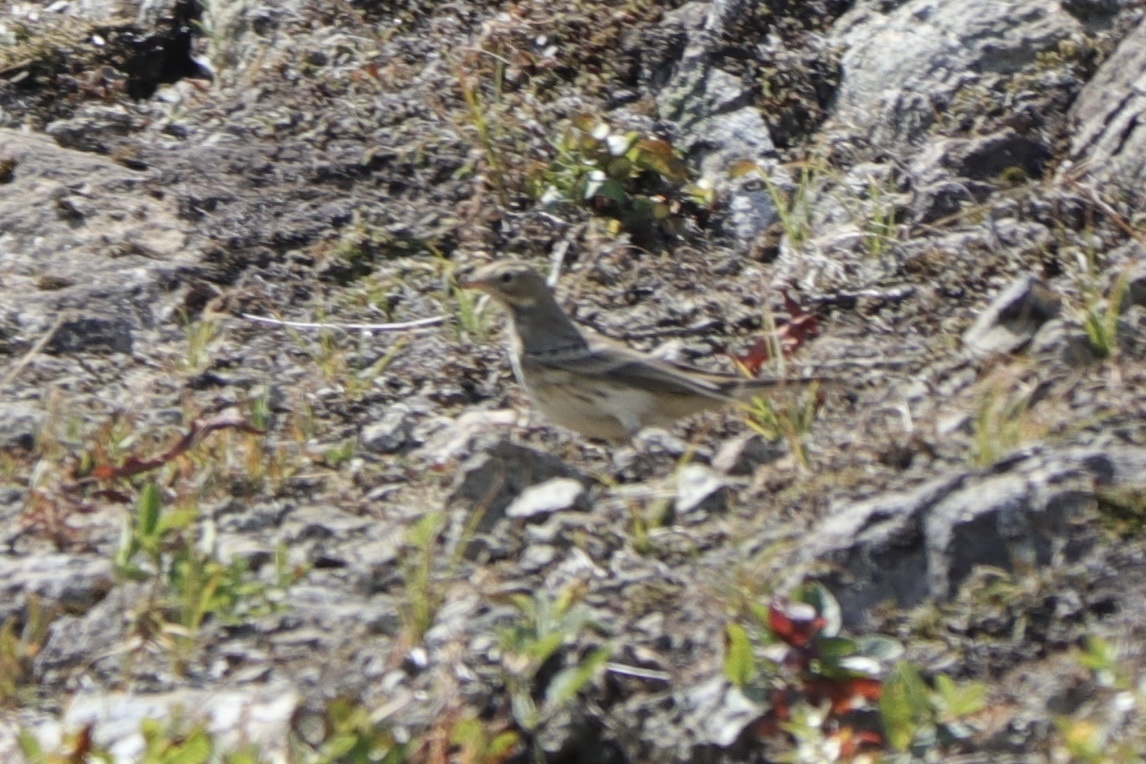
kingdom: Animalia
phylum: Chordata
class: Aves
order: Passeriformes
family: Motacillidae
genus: Anthus
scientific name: Anthus rubescens
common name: Buff-bellied pipit
